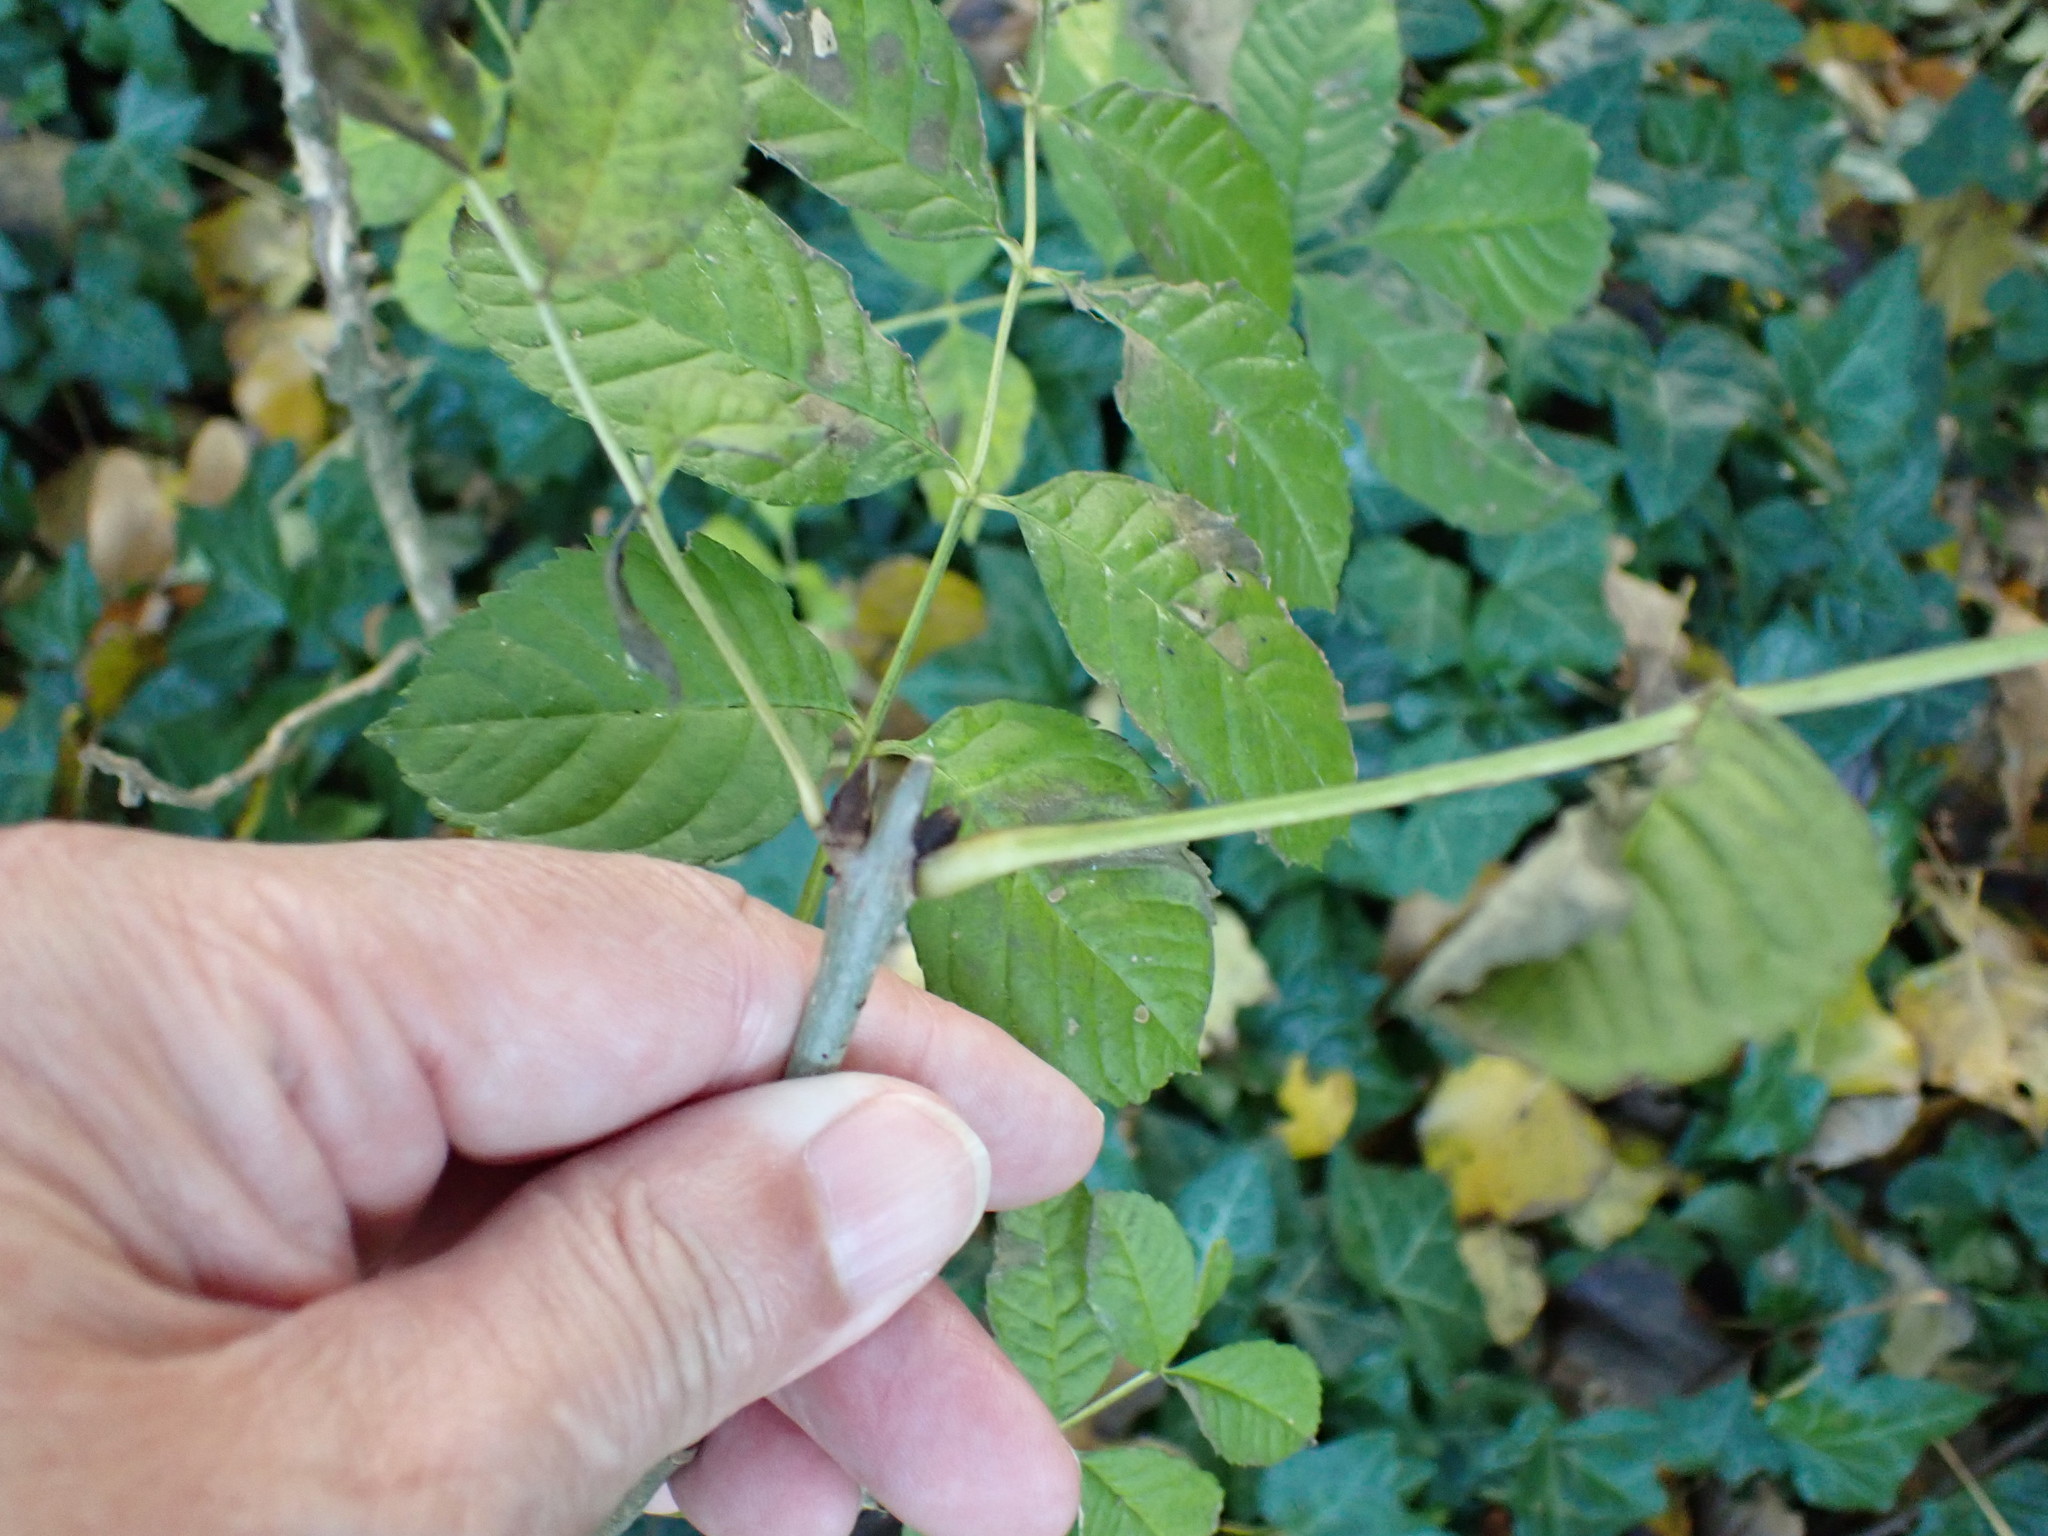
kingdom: Plantae
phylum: Tracheophyta
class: Magnoliopsida
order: Lamiales
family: Oleaceae
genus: Fraxinus
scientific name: Fraxinus excelsior
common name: European ash
